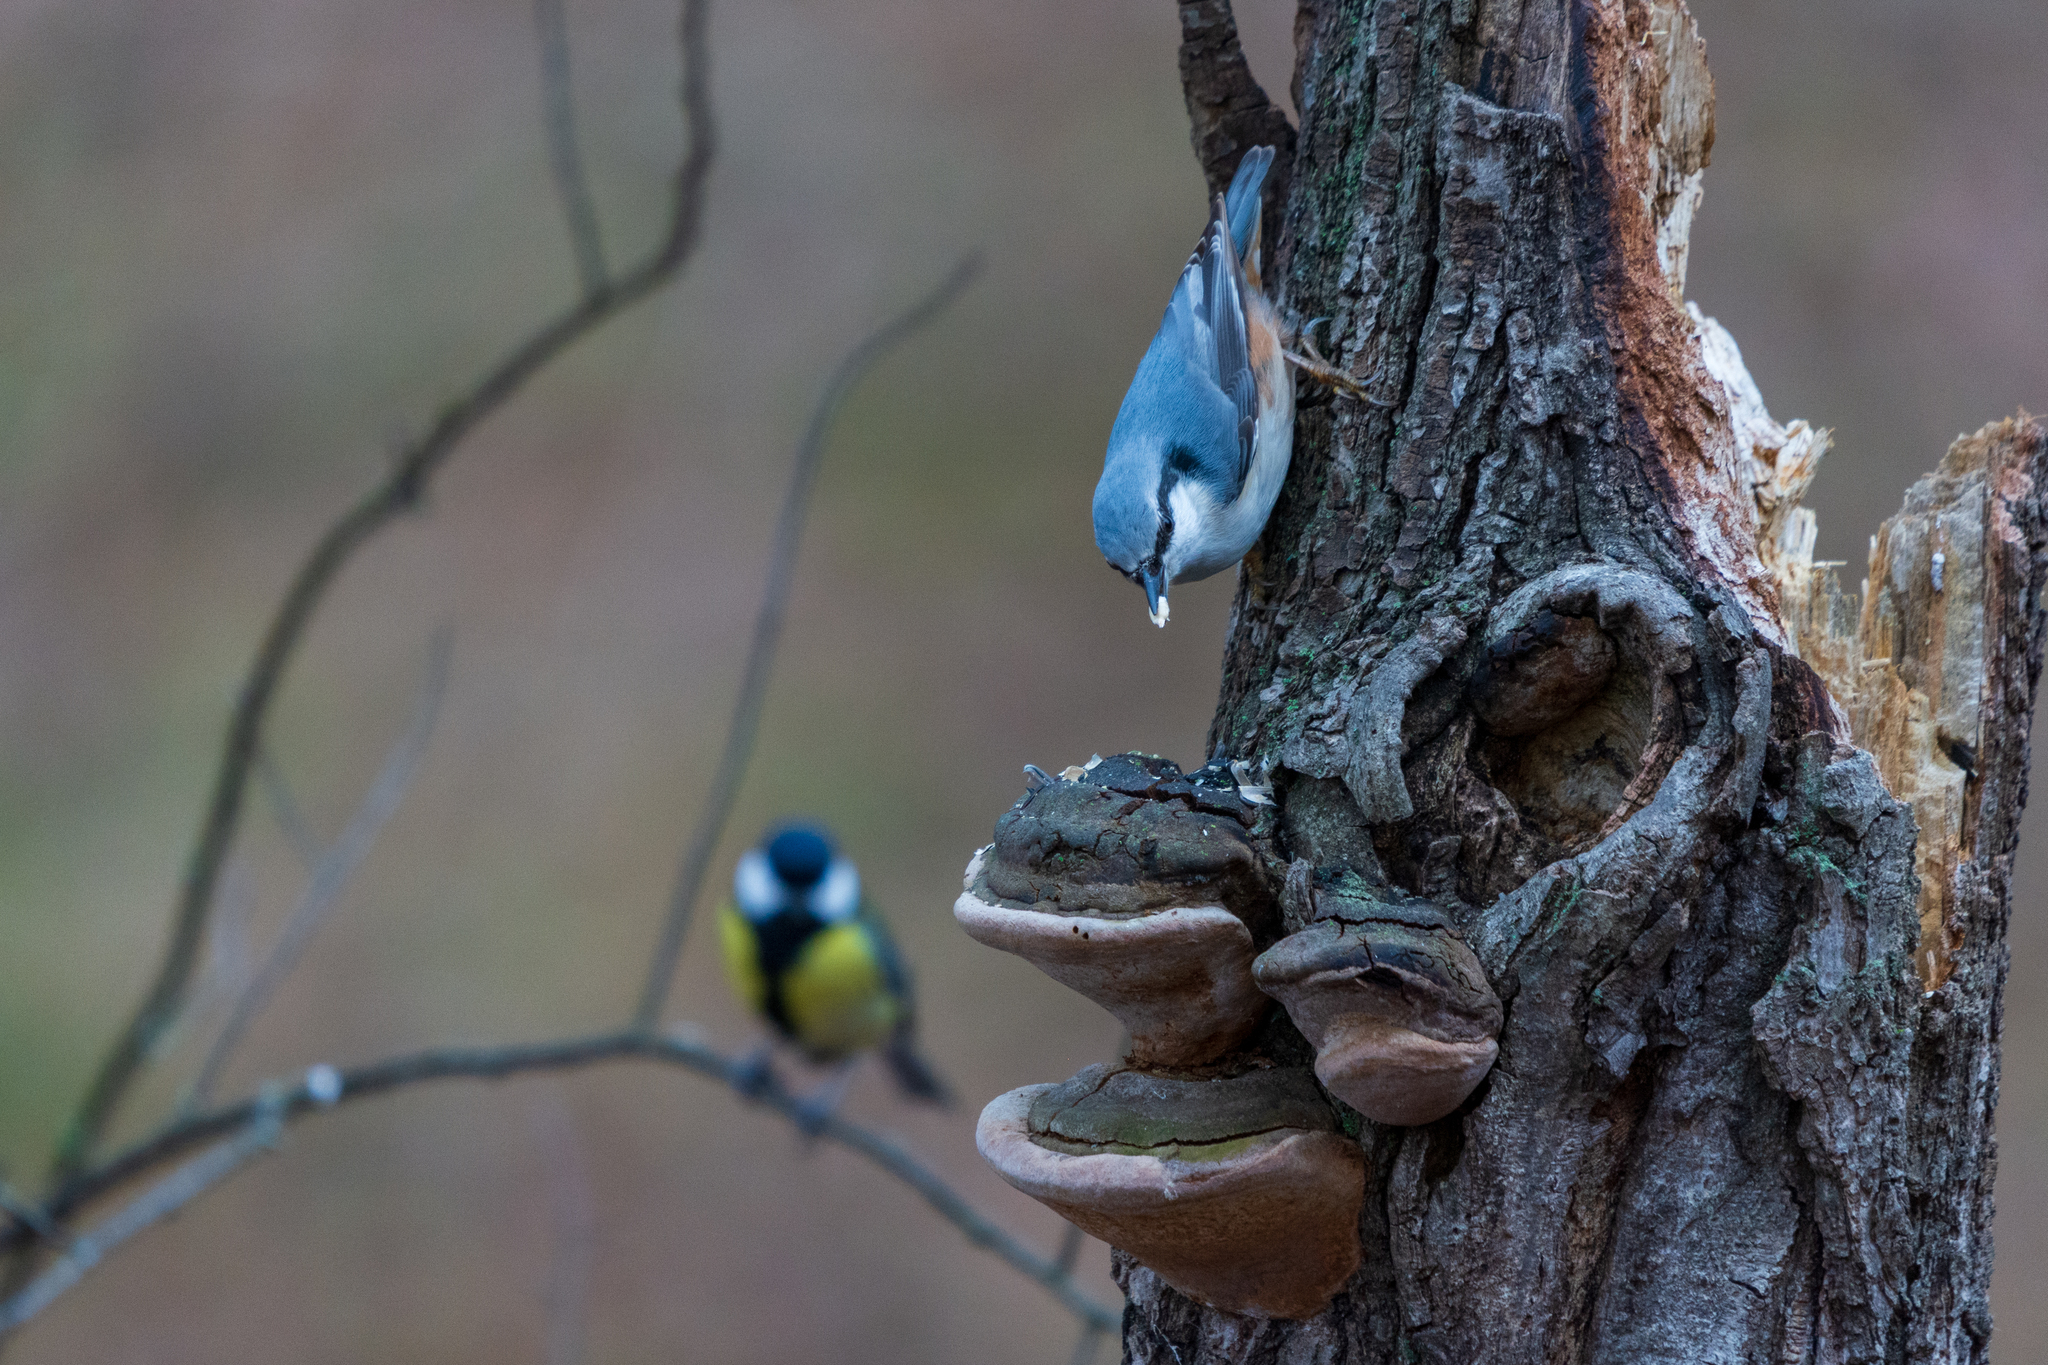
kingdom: Animalia
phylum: Chordata
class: Aves
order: Passeriformes
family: Sittidae
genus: Sitta
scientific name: Sitta europaea
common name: Eurasian nuthatch
